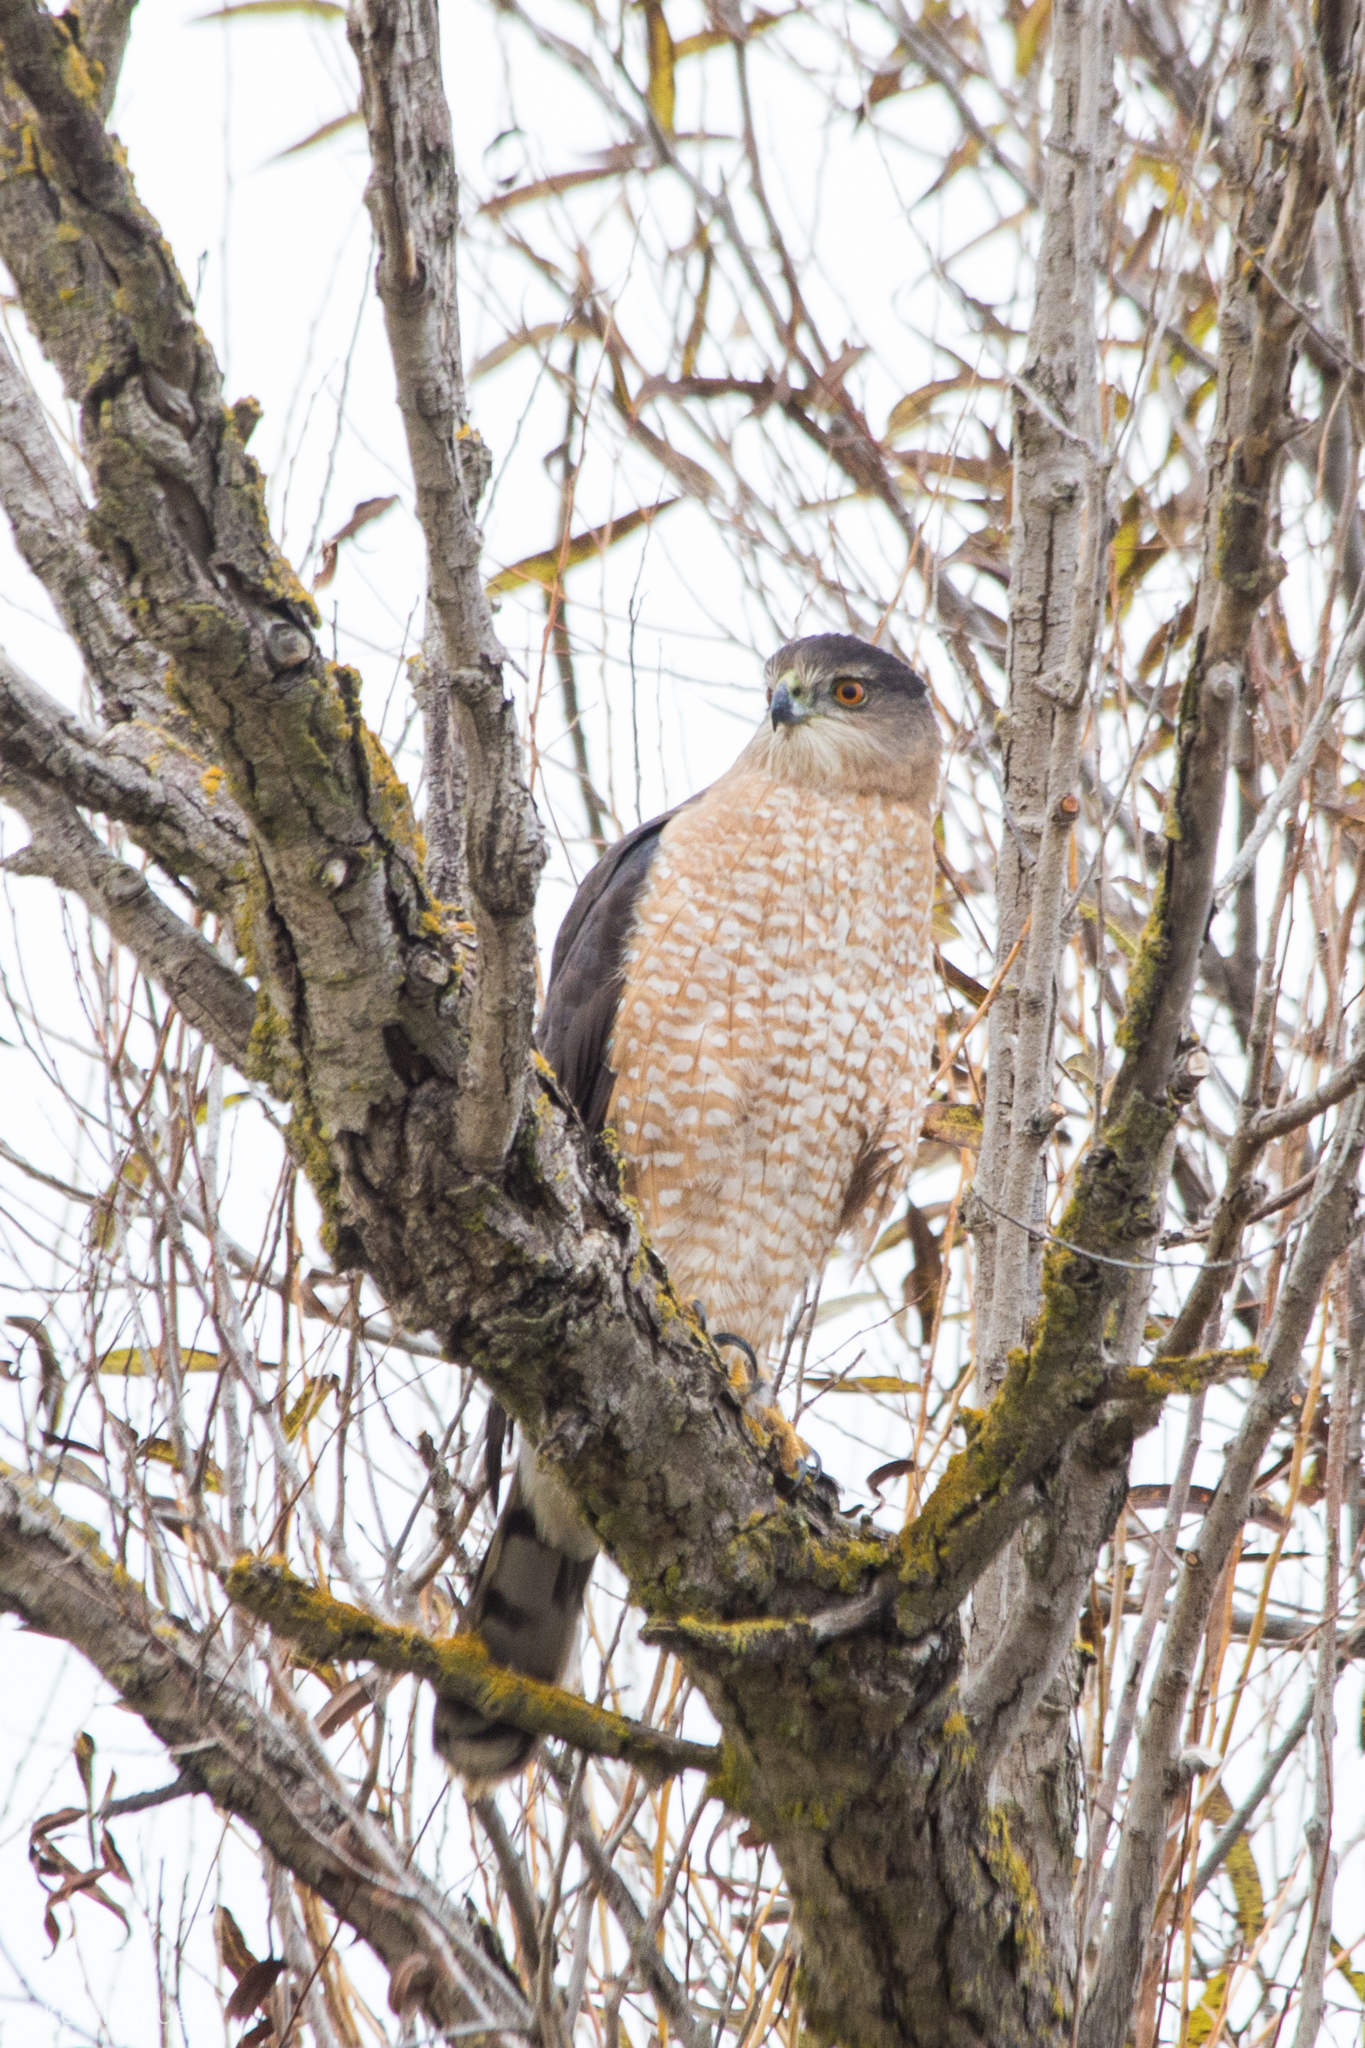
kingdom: Animalia
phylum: Chordata
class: Aves
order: Accipitriformes
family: Accipitridae
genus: Accipiter
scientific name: Accipiter cooperii
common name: Cooper's hawk
